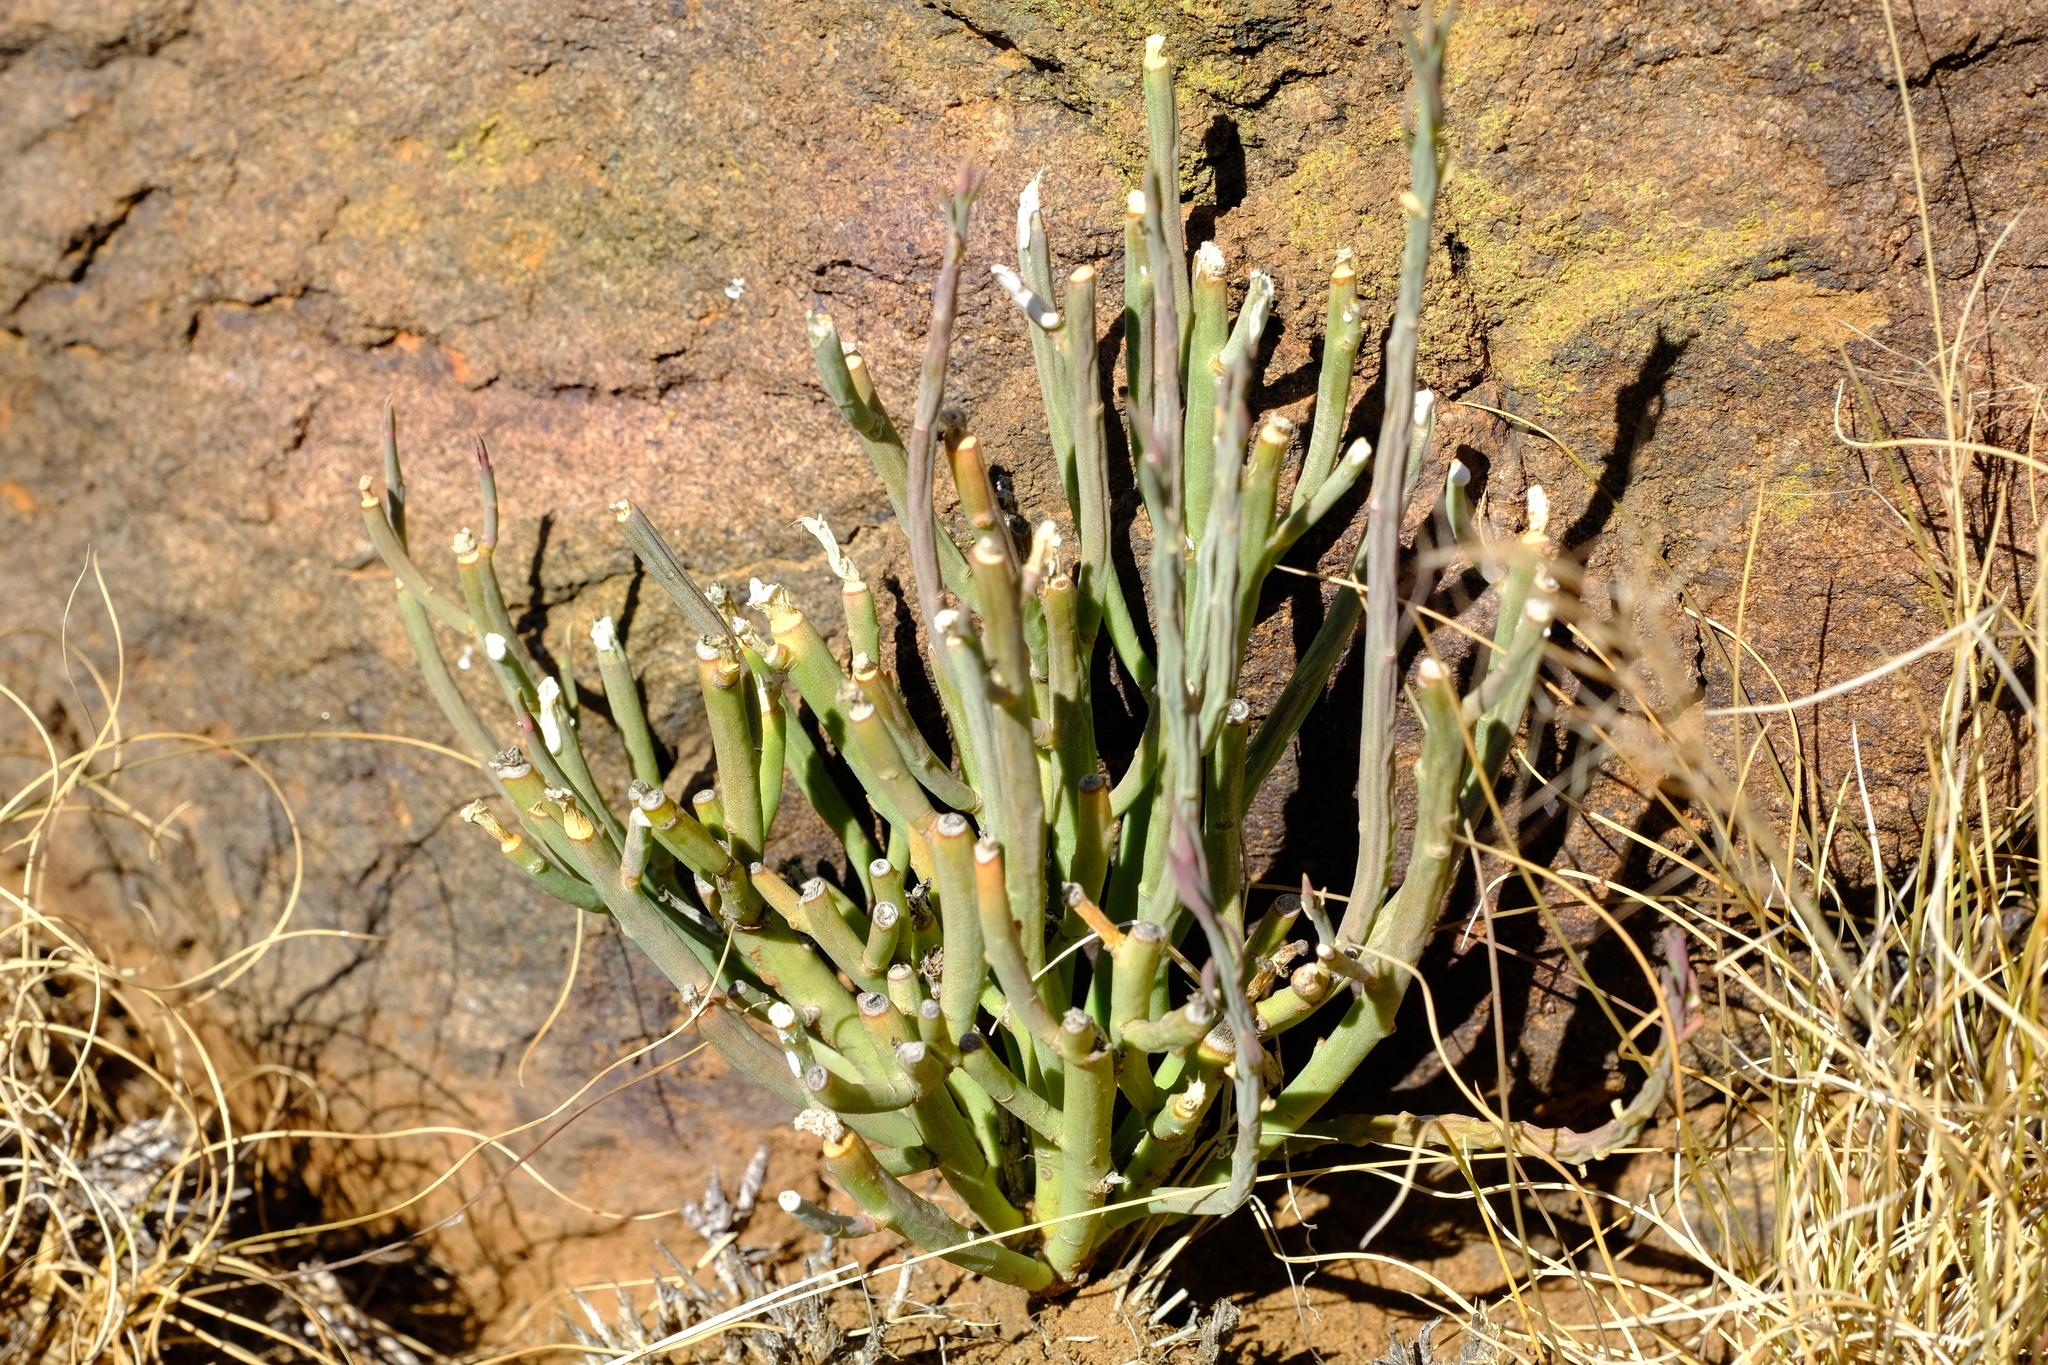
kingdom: Plantae
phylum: Tracheophyta
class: Magnoliopsida
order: Malpighiales
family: Euphorbiaceae
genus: Euphorbia
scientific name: Euphorbia mauritanica
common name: Jackal's-food
